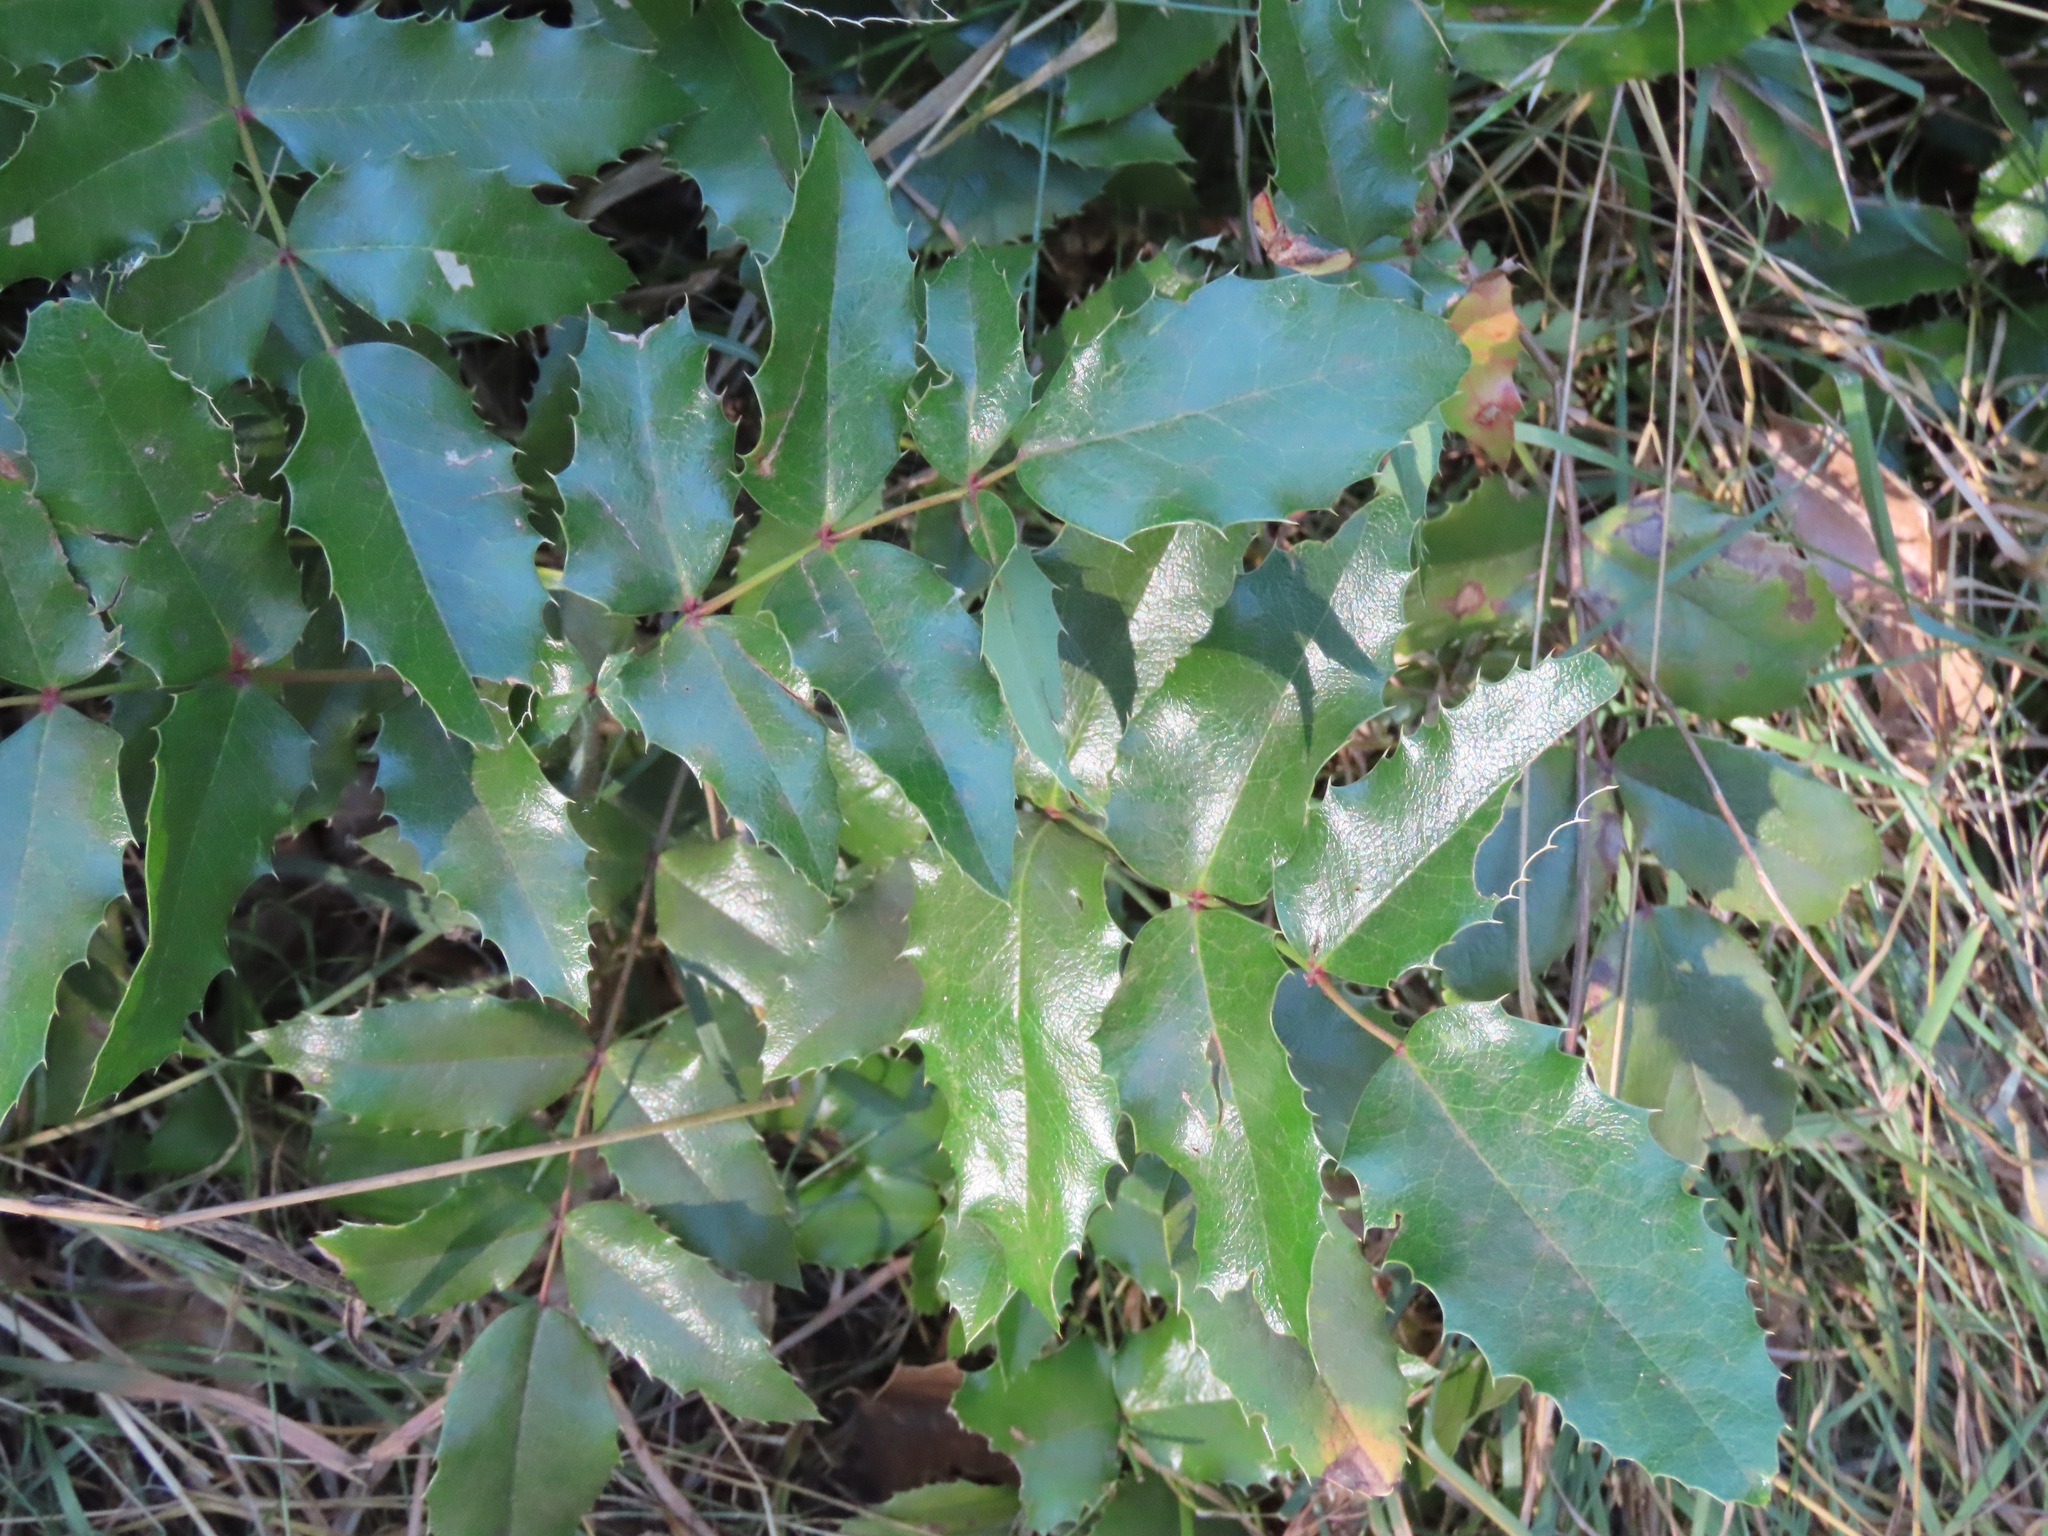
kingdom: Plantae
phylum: Tracheophyta
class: Magnoliopsida
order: Ranunculales
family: Berberidaceae
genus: Mahonia
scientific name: Mahonia aquifolium
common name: Oregon-grape
